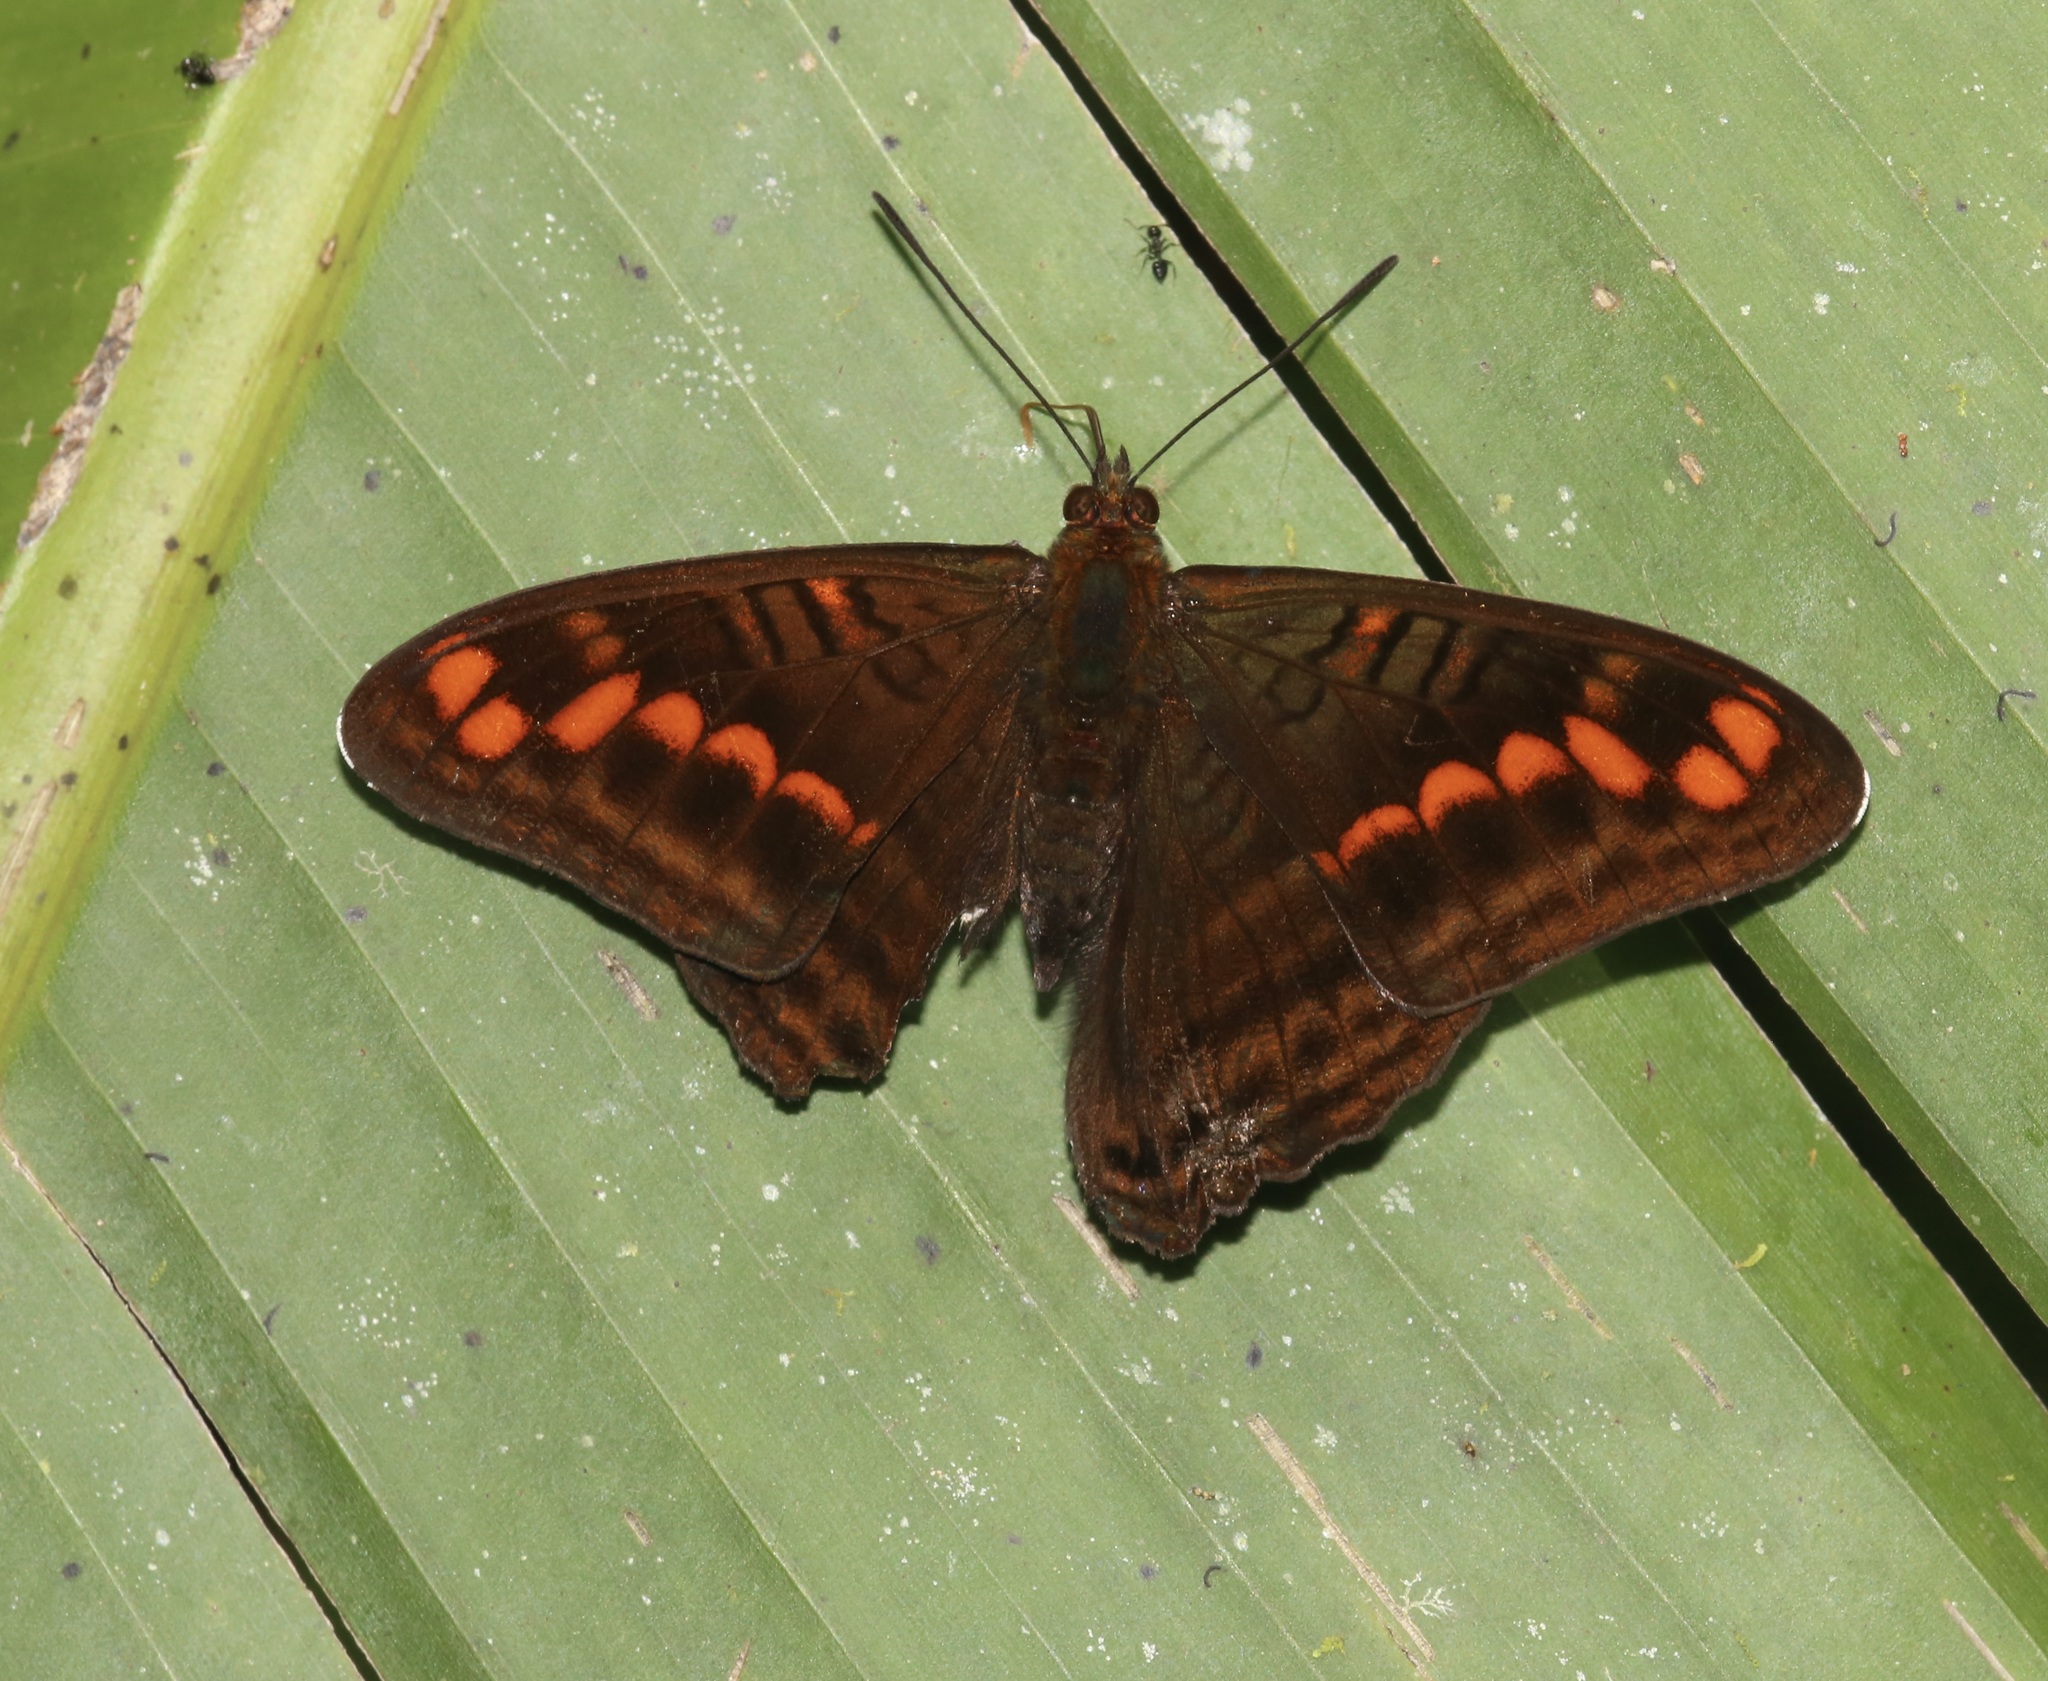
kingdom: Animalia
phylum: Arthropoda
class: Insecta
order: Lepidoptera
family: Nymphalidae
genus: Limenitis
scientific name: Limenitis levona
